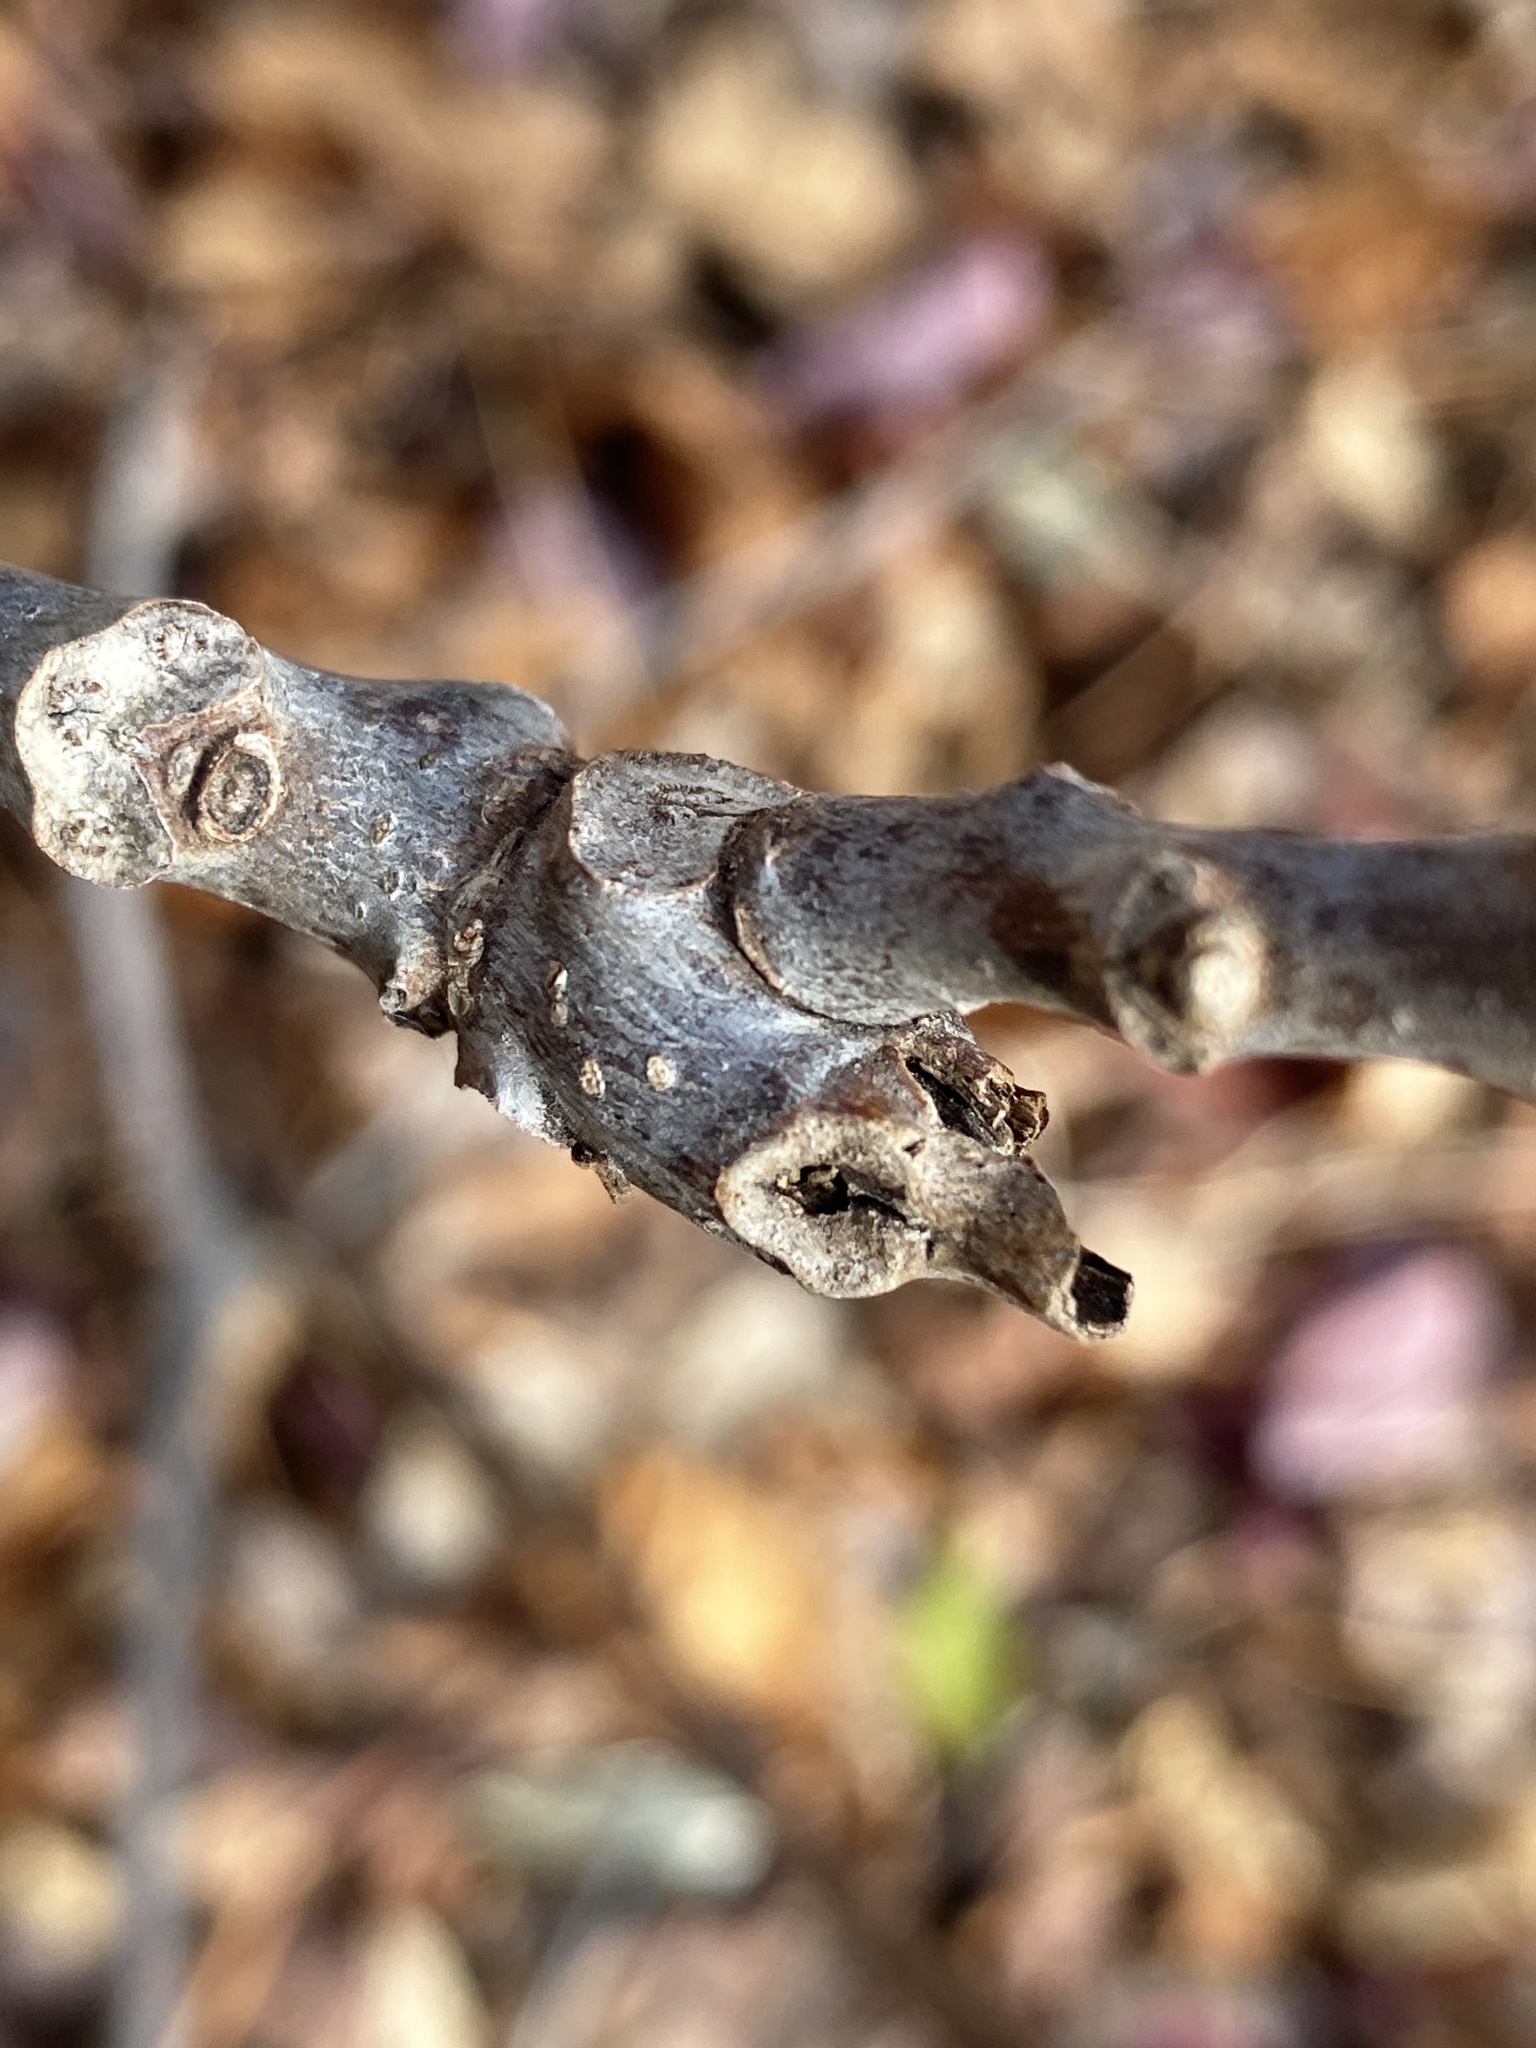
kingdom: Plantae
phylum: Tracheophyta
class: Magnoliopsida
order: Fagales
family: Juglandaceae
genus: Juglans
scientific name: Juglans nigra
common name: Black walnut
